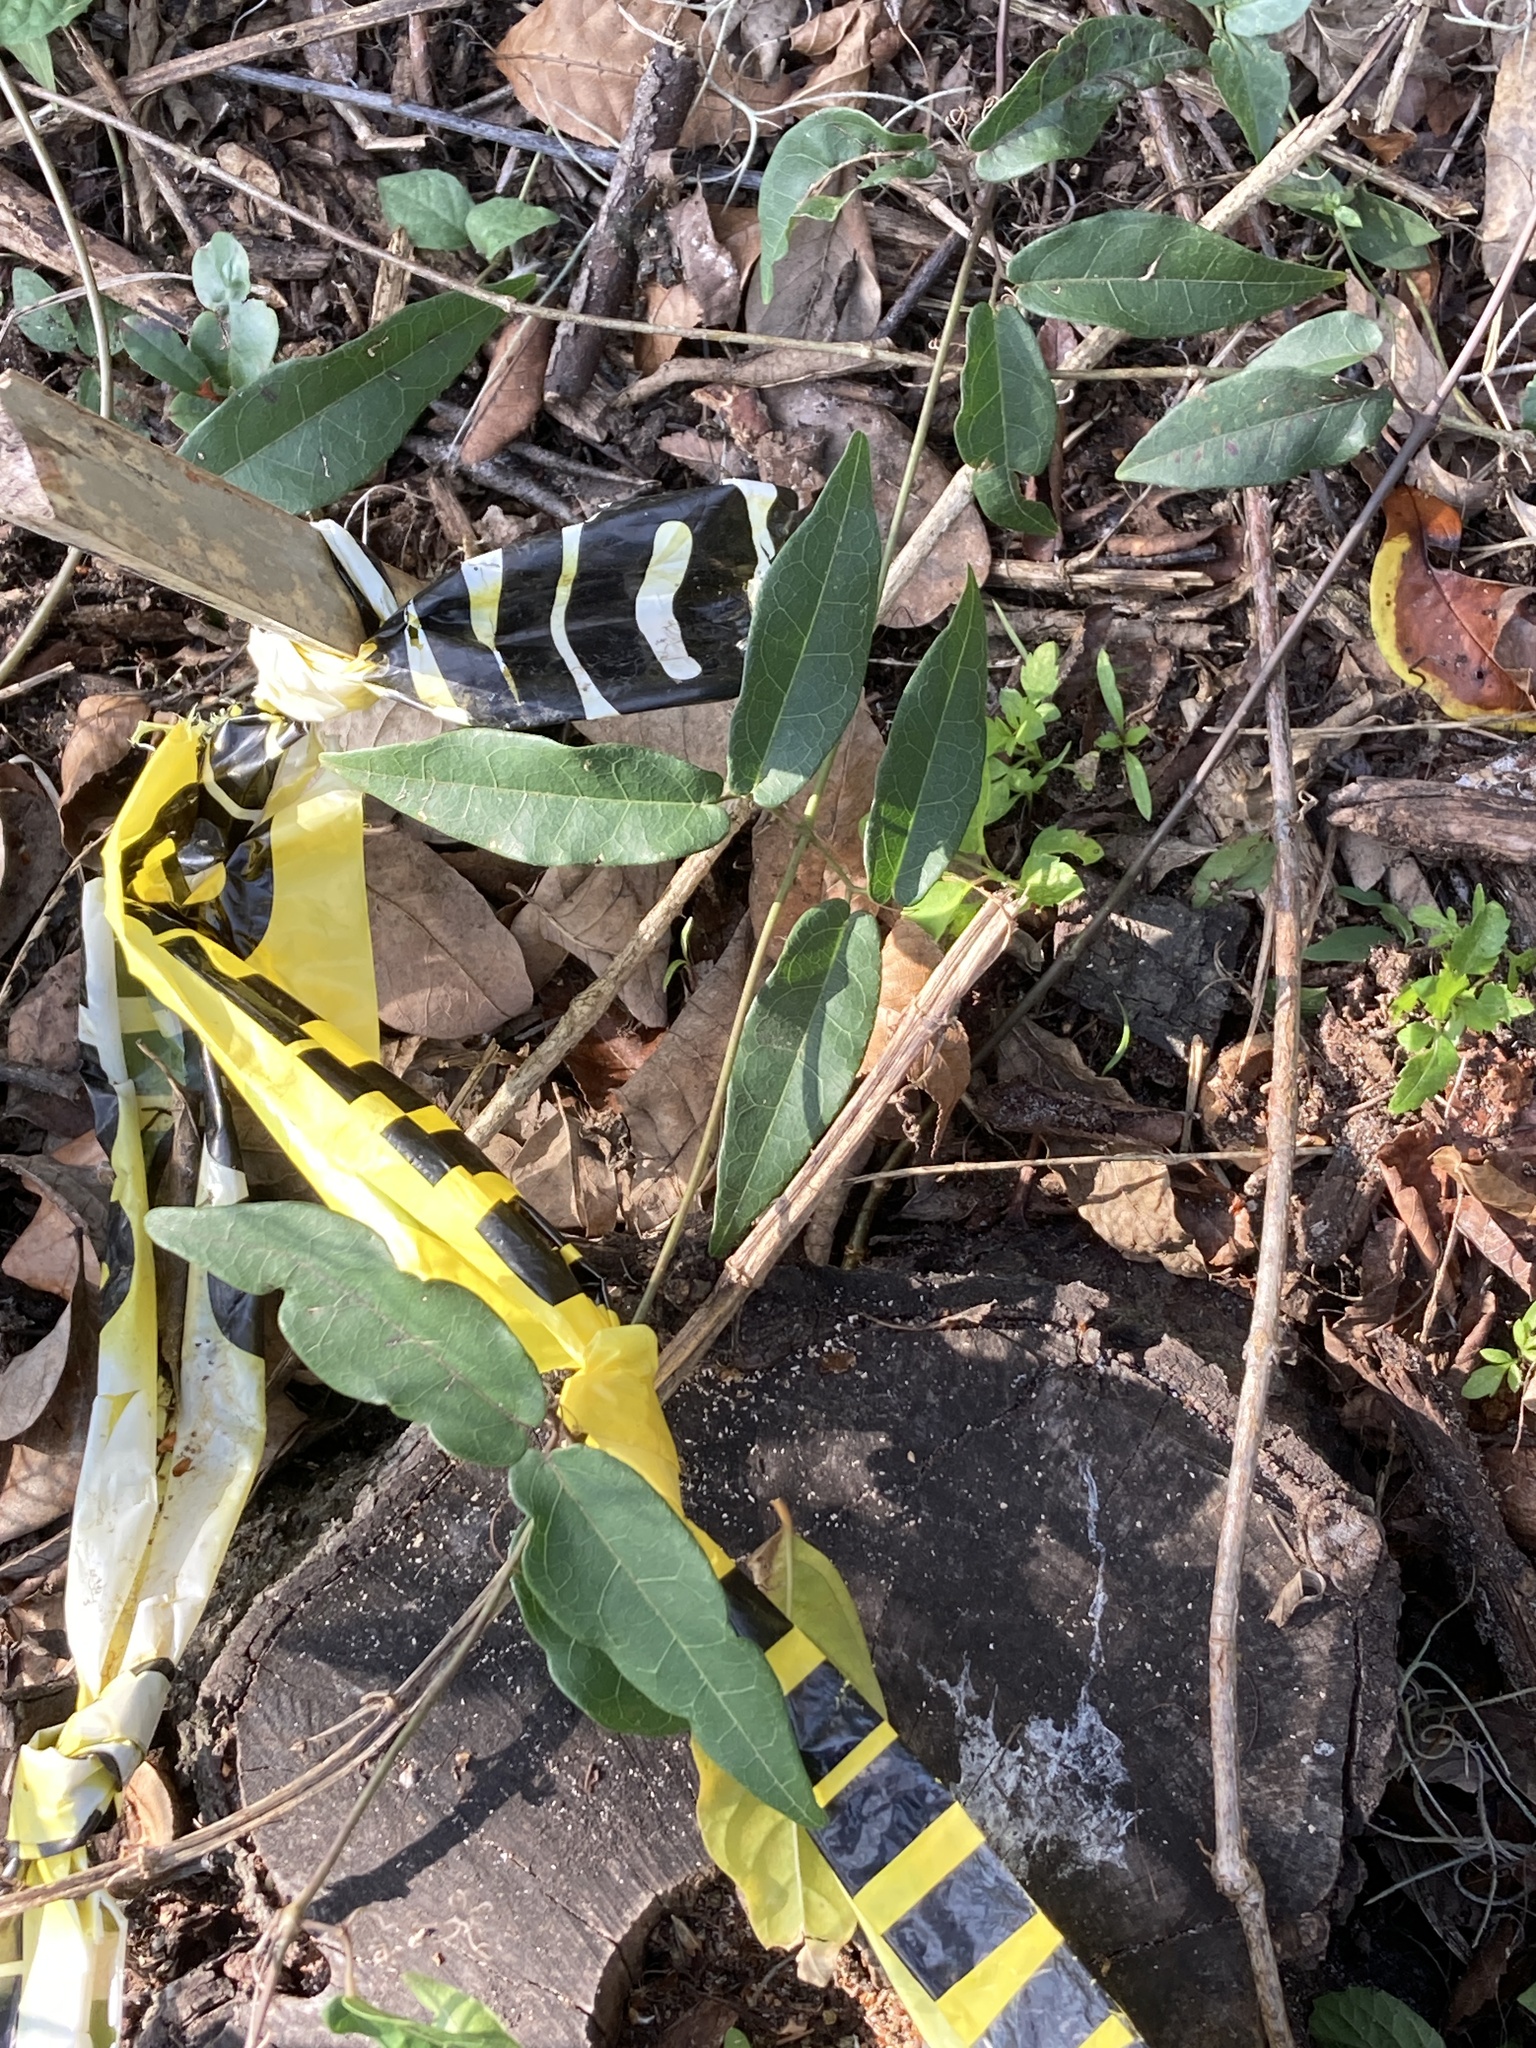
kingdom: Plantae
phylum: Tracheophyta
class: Magnoliopsida
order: Lamiales
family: Bignoniaceae
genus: Bignonia
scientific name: Bignonia capreolata
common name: Crossvine
